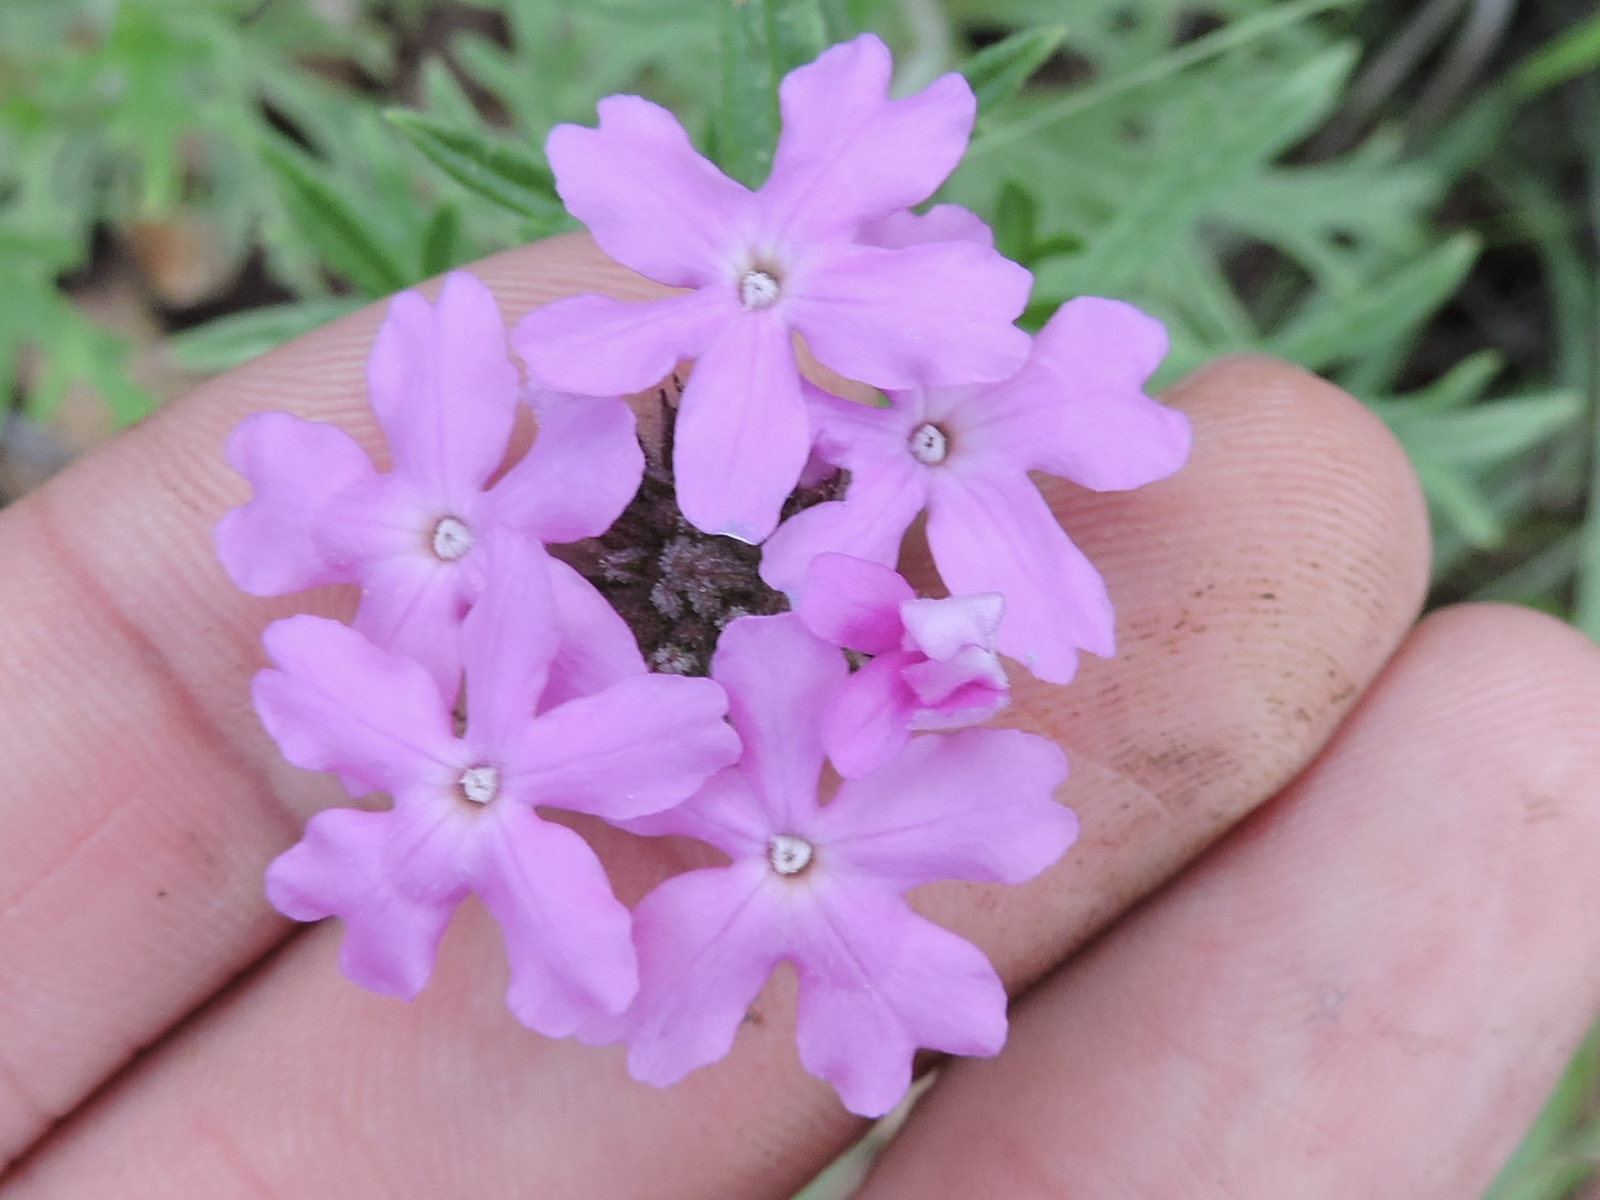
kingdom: Plantae
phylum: Tracheophyta
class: Magnoliopsida
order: Lamiales
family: Verbenaceae
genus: Verbena
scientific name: Verbena bipinnatifida
